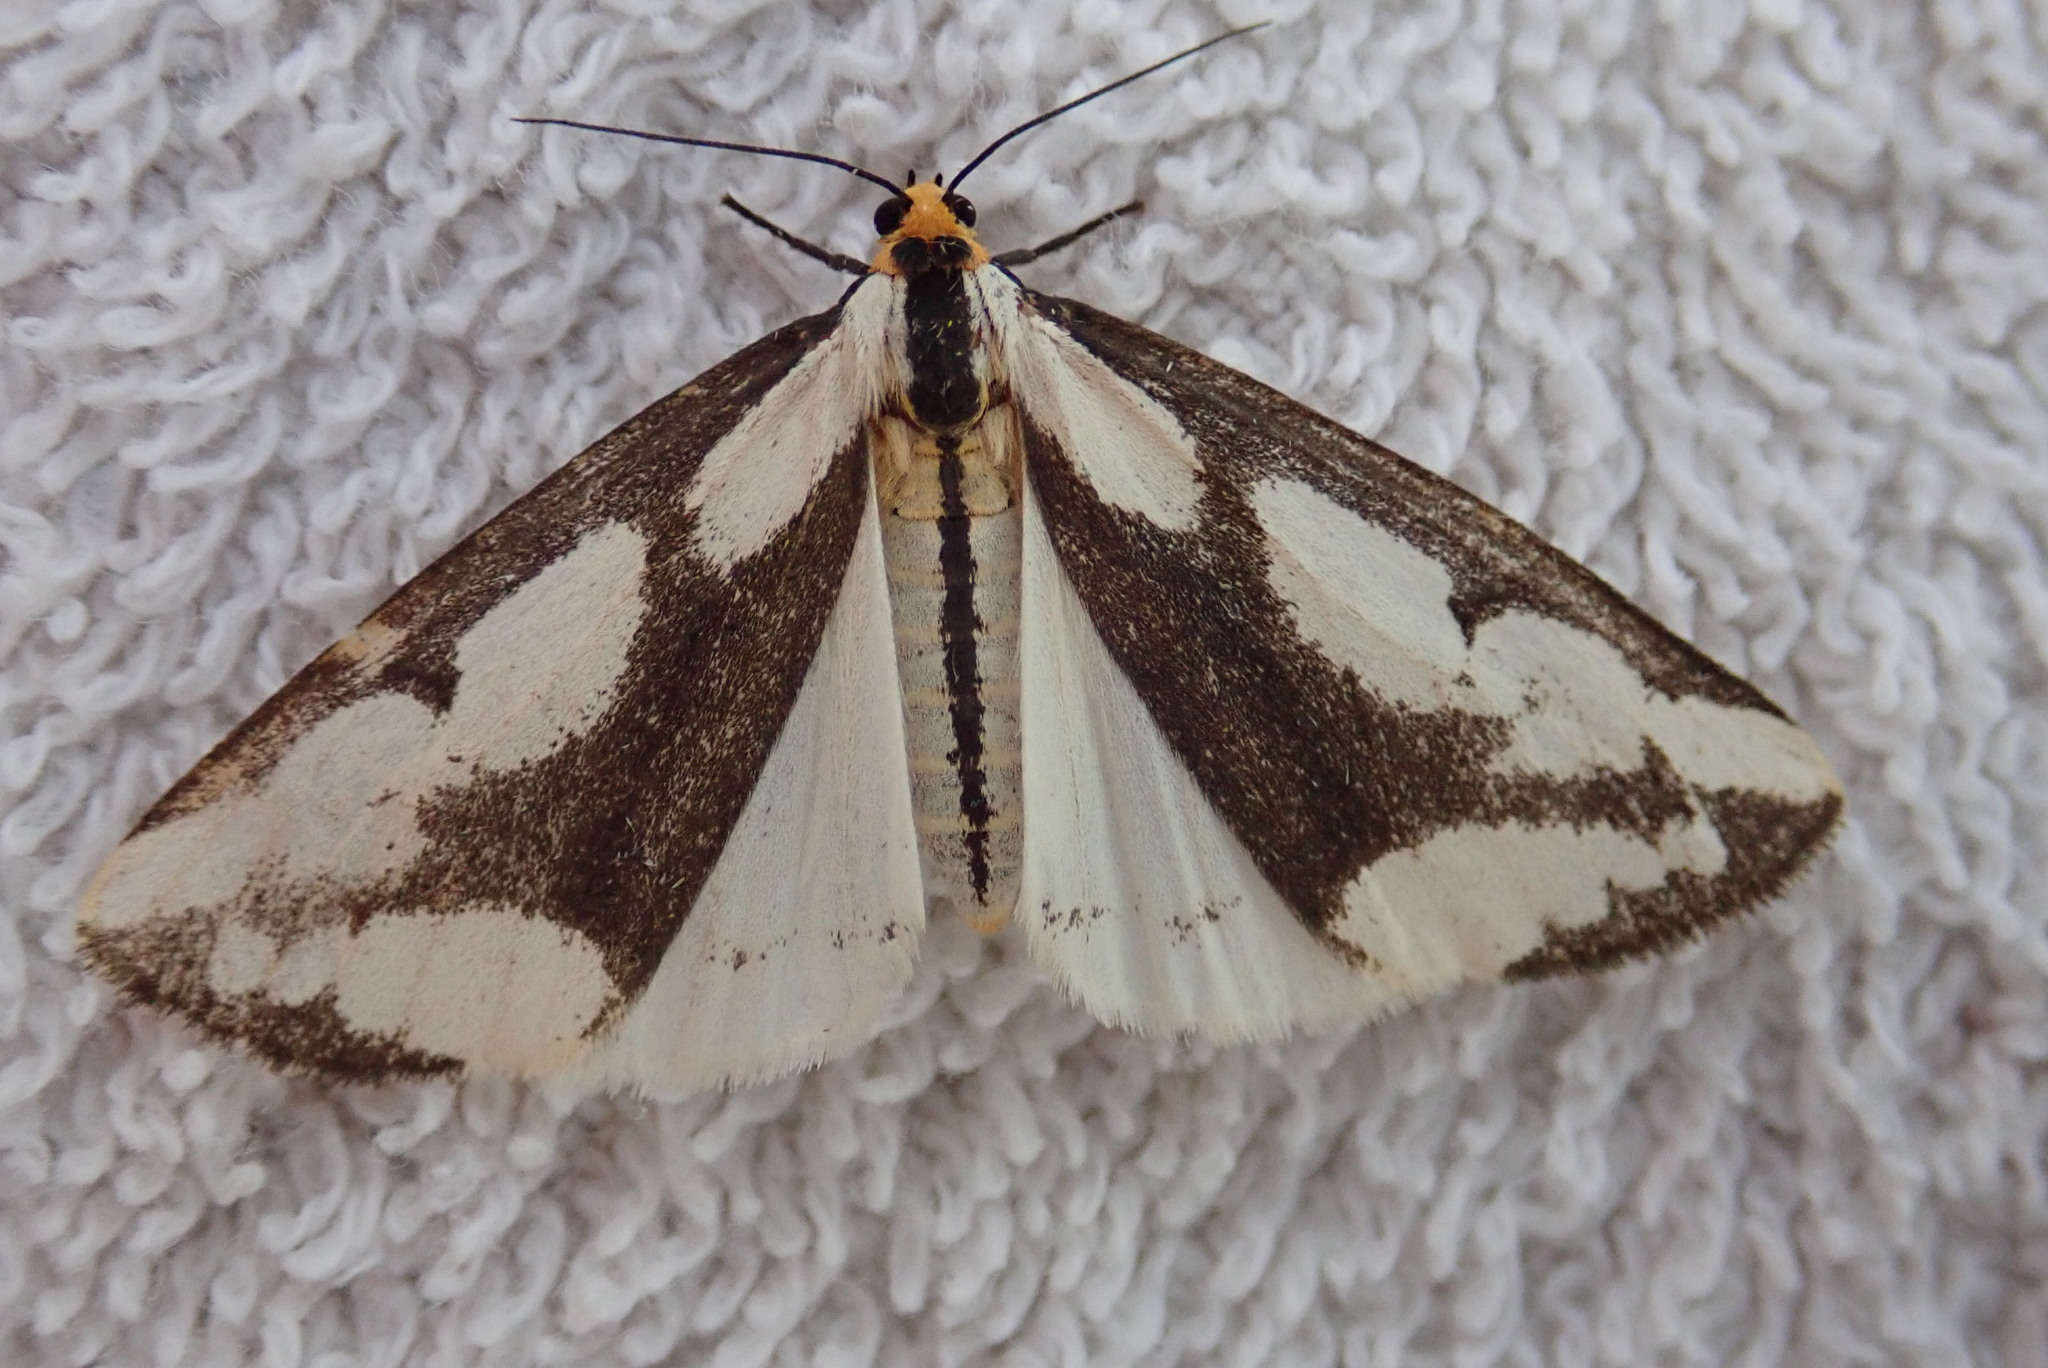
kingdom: Animalia
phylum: Arthropoda
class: Insecta
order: Lepidoptera
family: Erebidae
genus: Haploa
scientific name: Haploa lecontei
